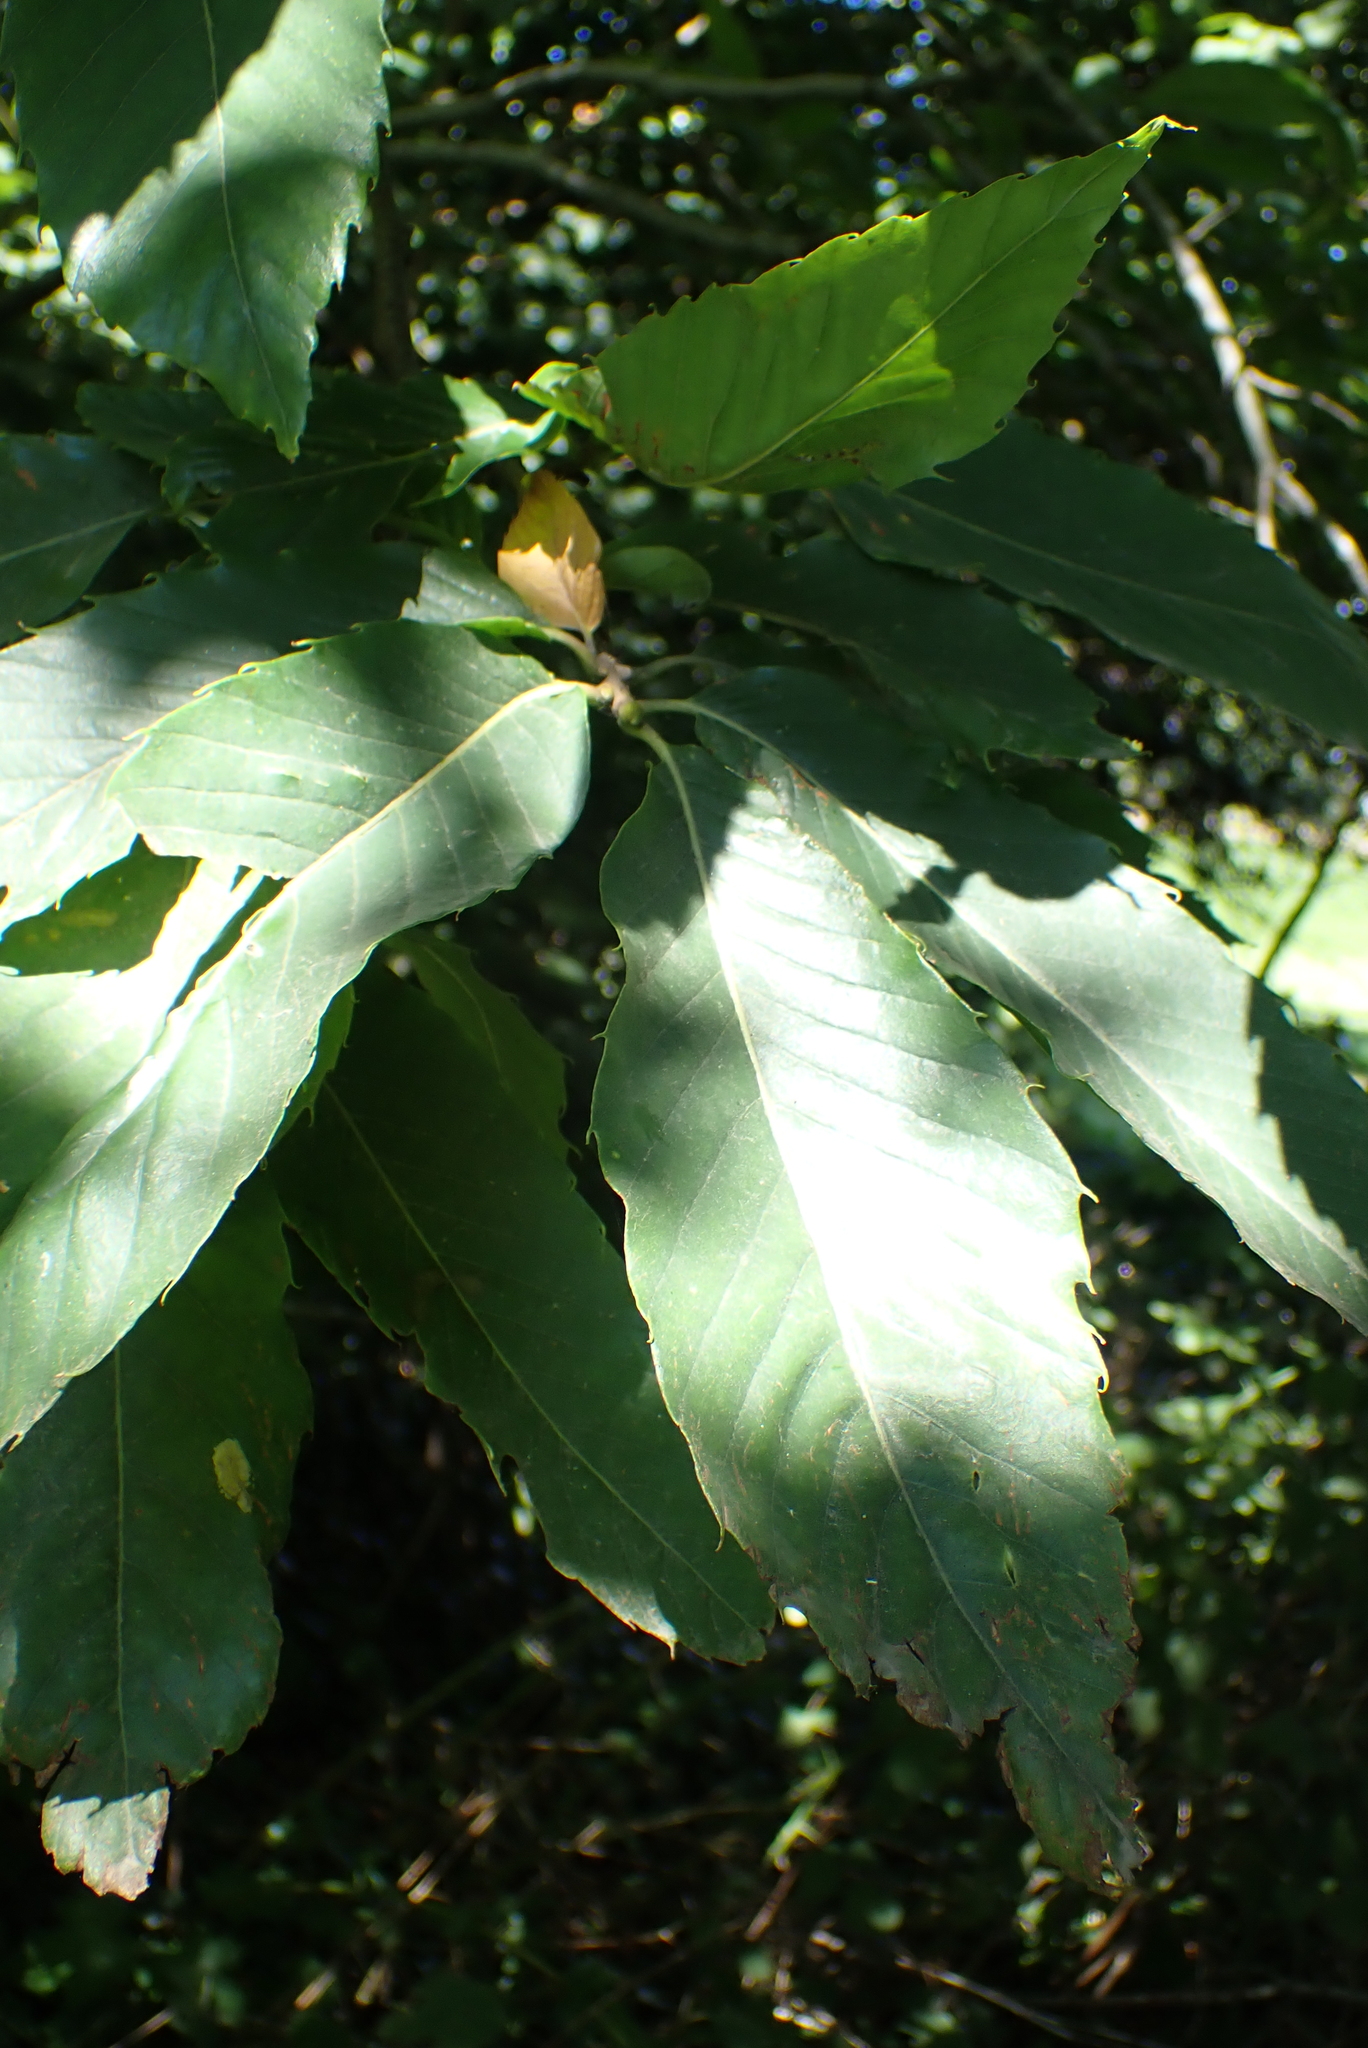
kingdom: Plantae
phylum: Tracheophyta
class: Magnoliopsida
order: Fagales
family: Fagaceae
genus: Castanea
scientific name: Castanea sativa
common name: Sweet chestnut
